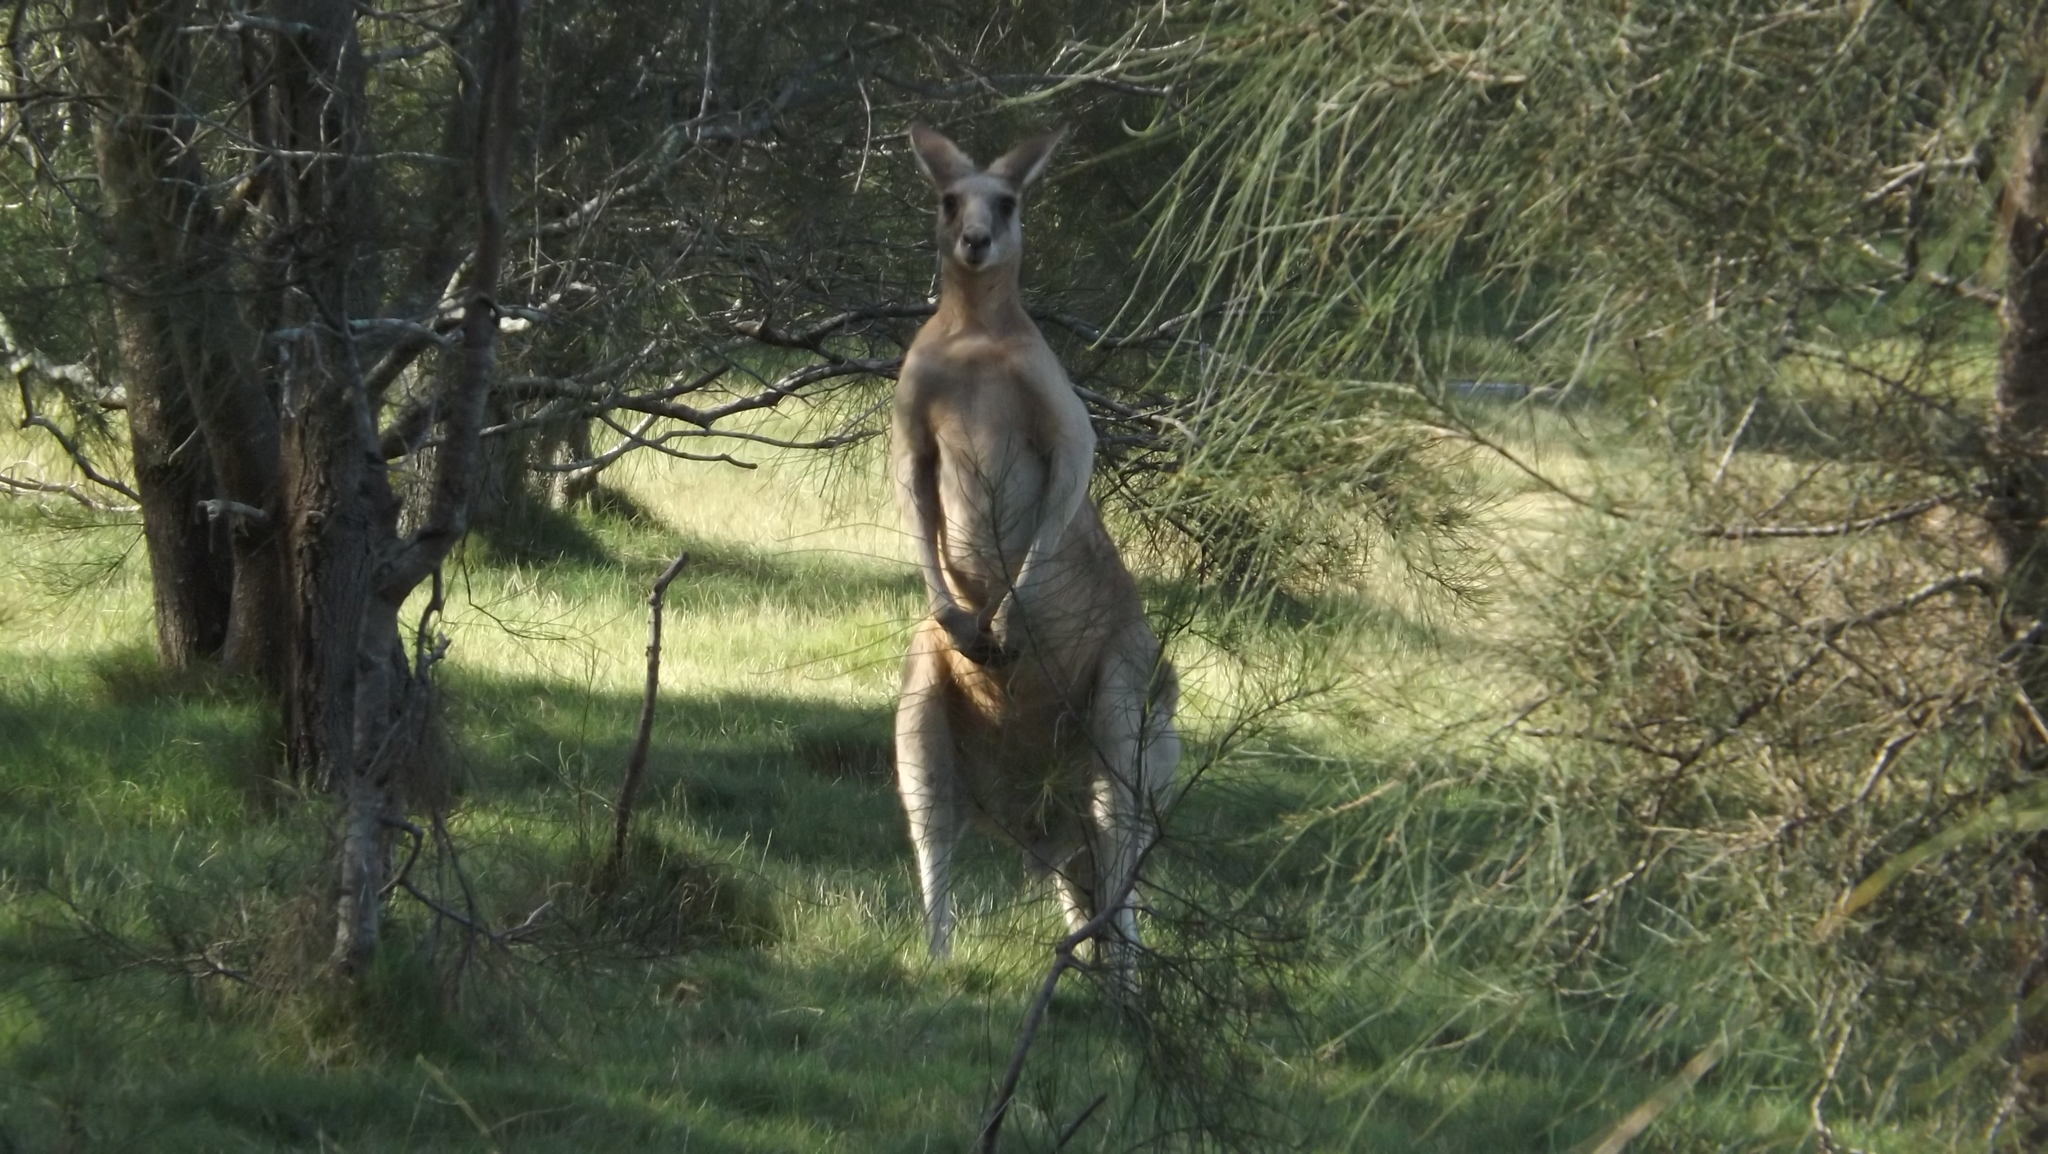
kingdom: Animalia
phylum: Chordata
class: Mammalia
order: Diprotodontia
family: Macropodidae
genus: Macropus
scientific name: Macropus giganteus
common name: Eastern grey kangaroo
